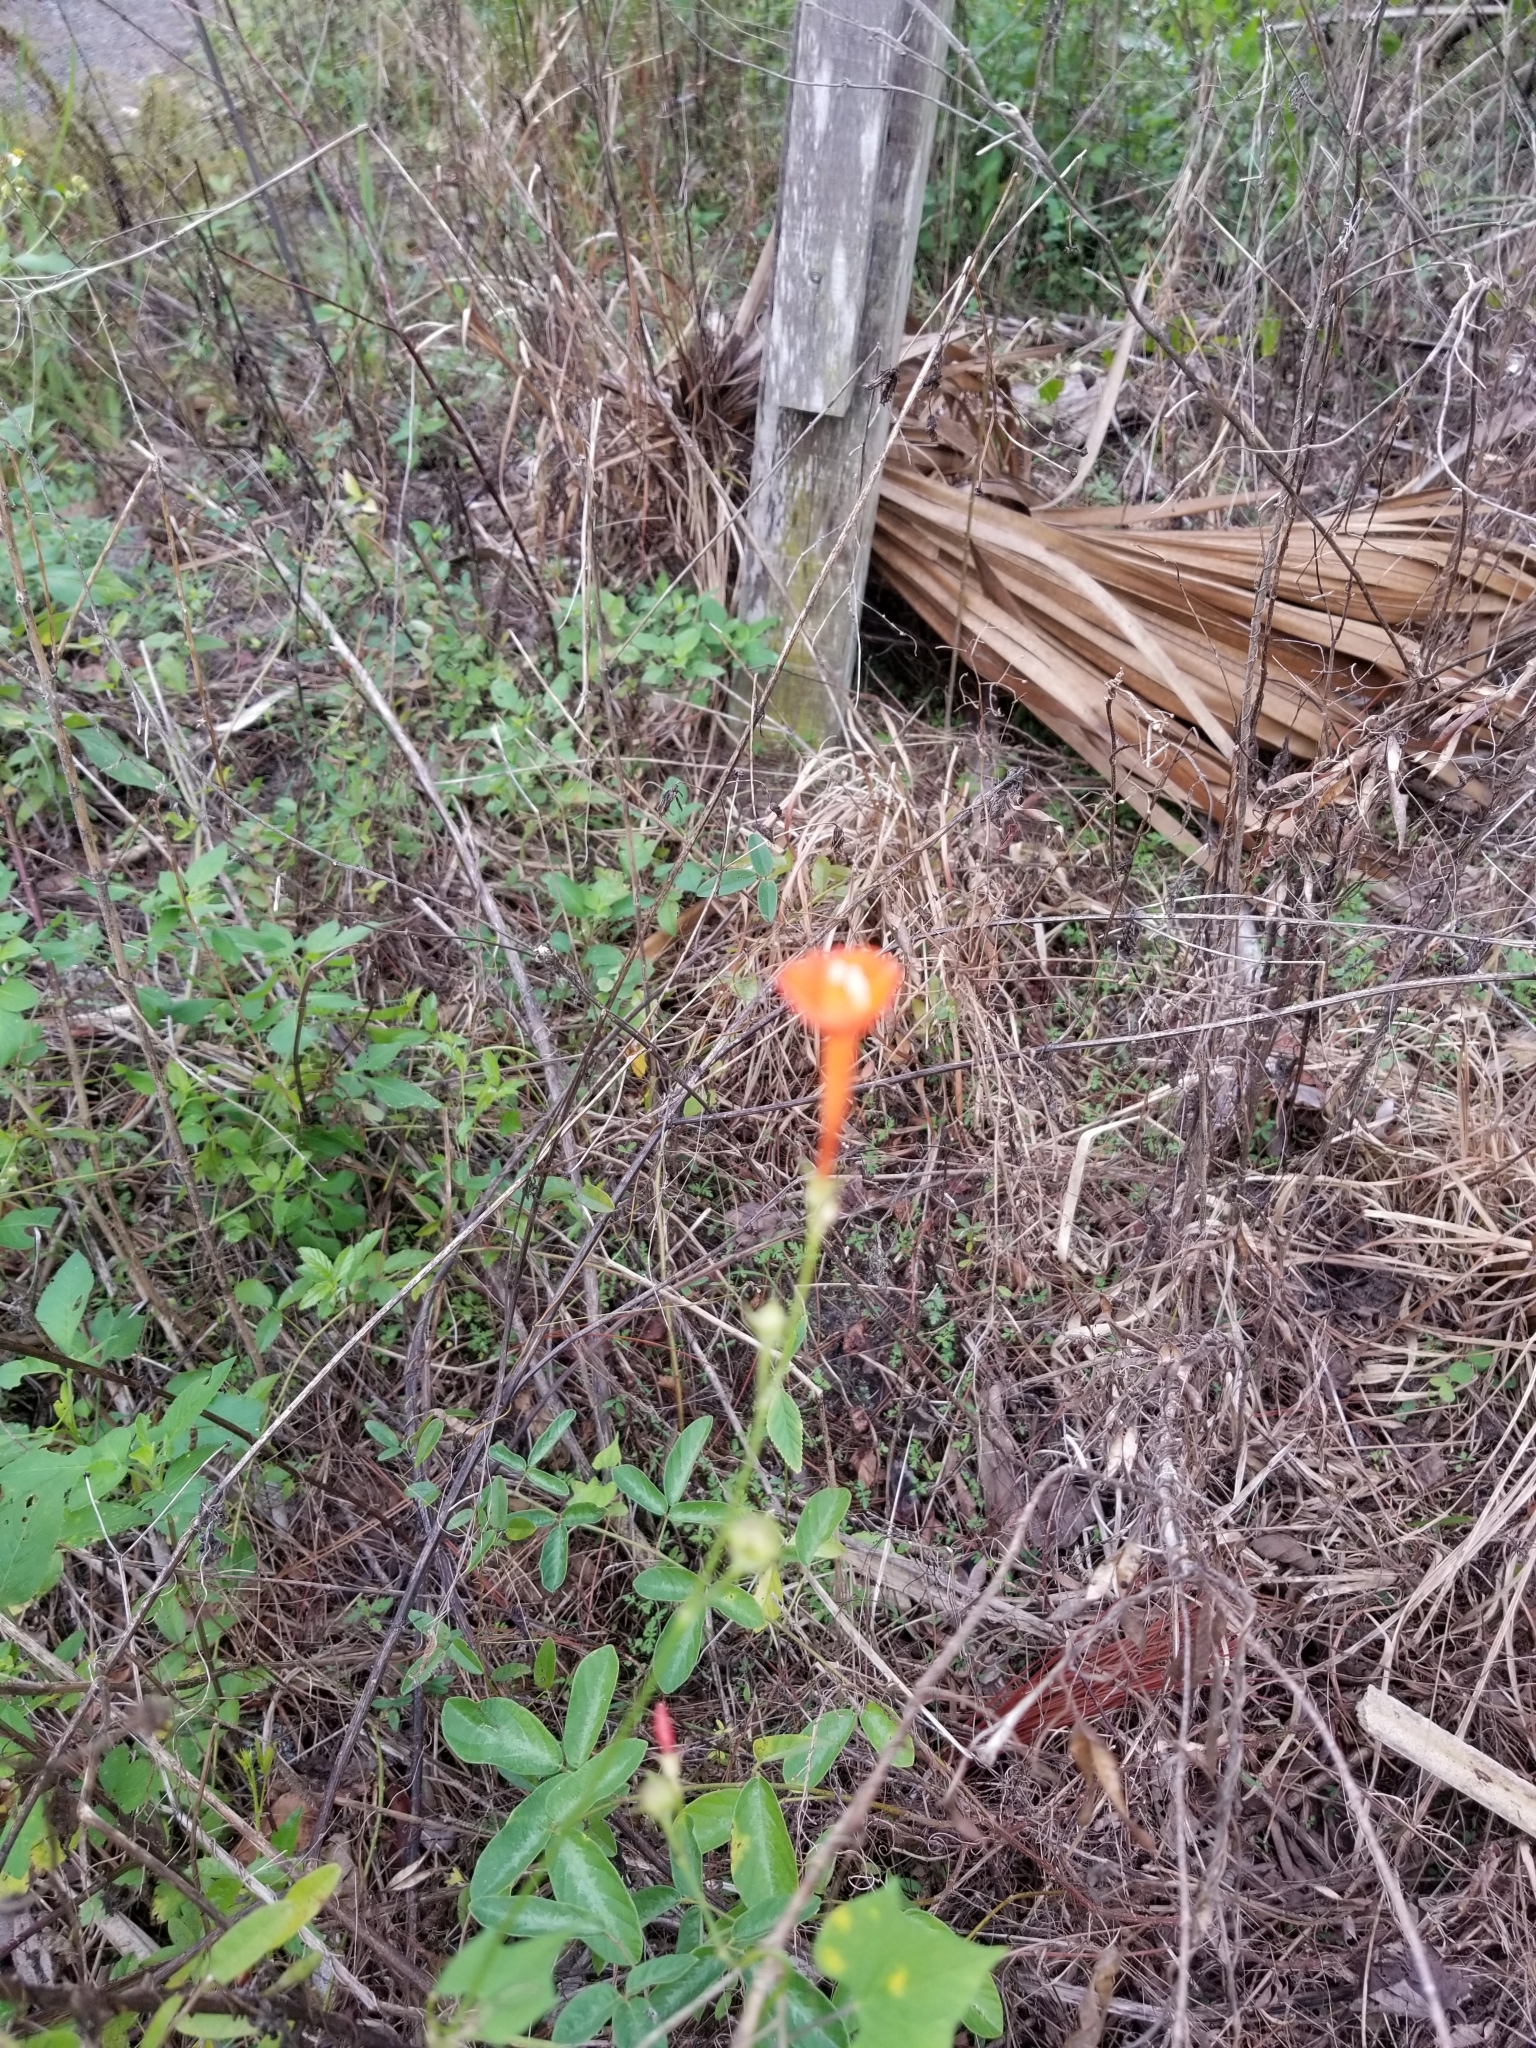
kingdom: Plantae
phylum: Tracheophyta
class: Magnoliopsida
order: Solanales
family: Convolvulaceae
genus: Ipomoea
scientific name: Ipomoea hederifolia
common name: Ivy-leaf morning-glory
